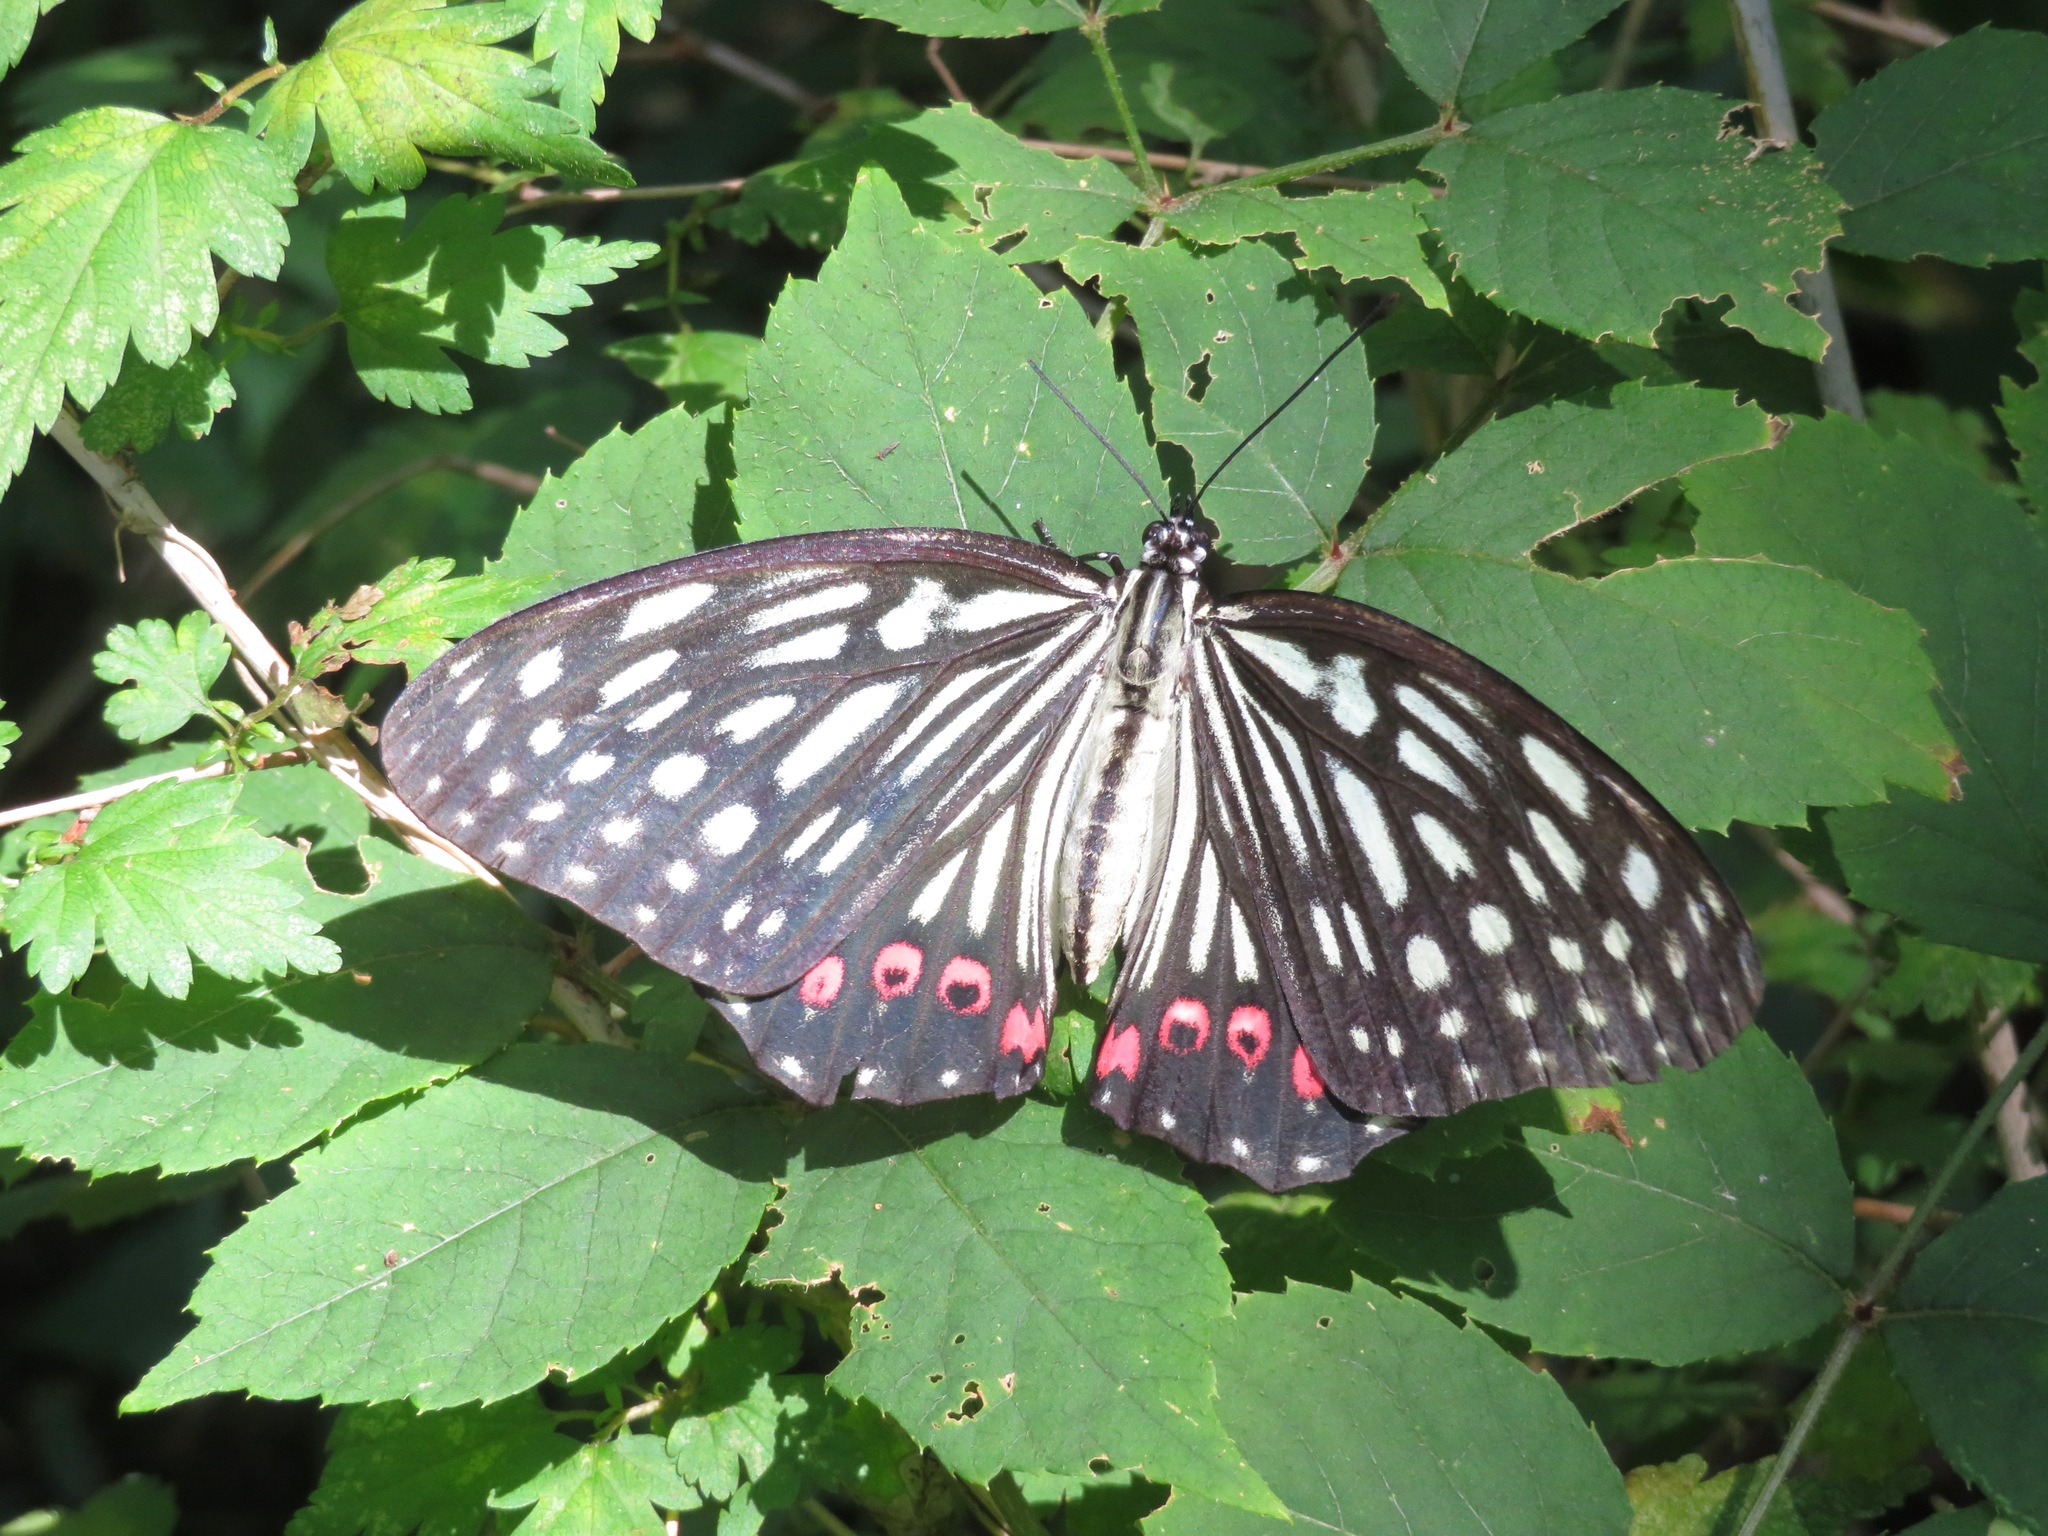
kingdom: Animalia
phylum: Arthropoda
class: Insecta
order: Lepidoptera
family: Nymphalidae
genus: Hestina
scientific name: Hestina assimilis
